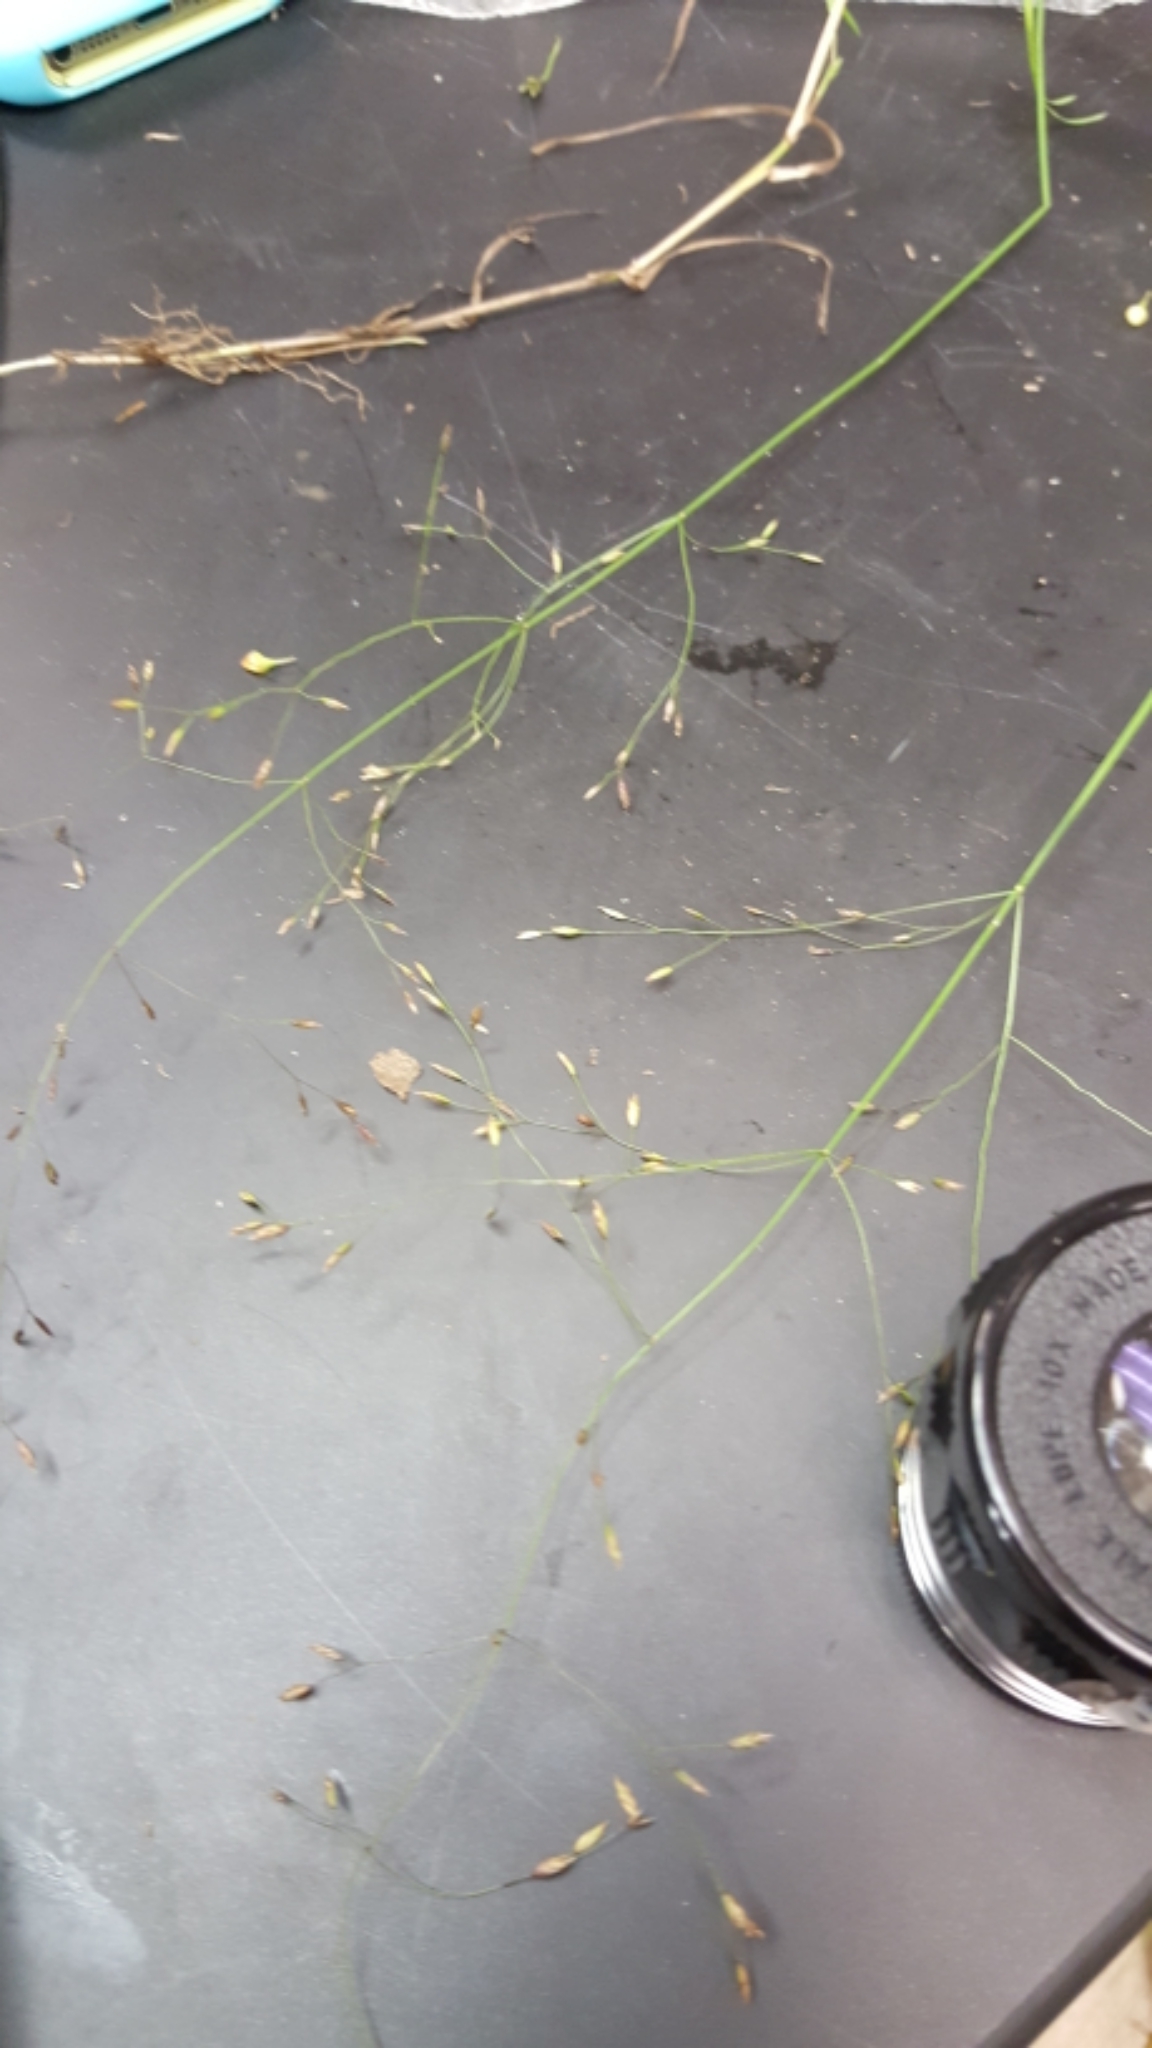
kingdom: Plantae
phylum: Tracheophyta
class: Liliopsida
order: Poales
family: Poaceae
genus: Poa
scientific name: Poa palustris
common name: Swamp meadow-grass
